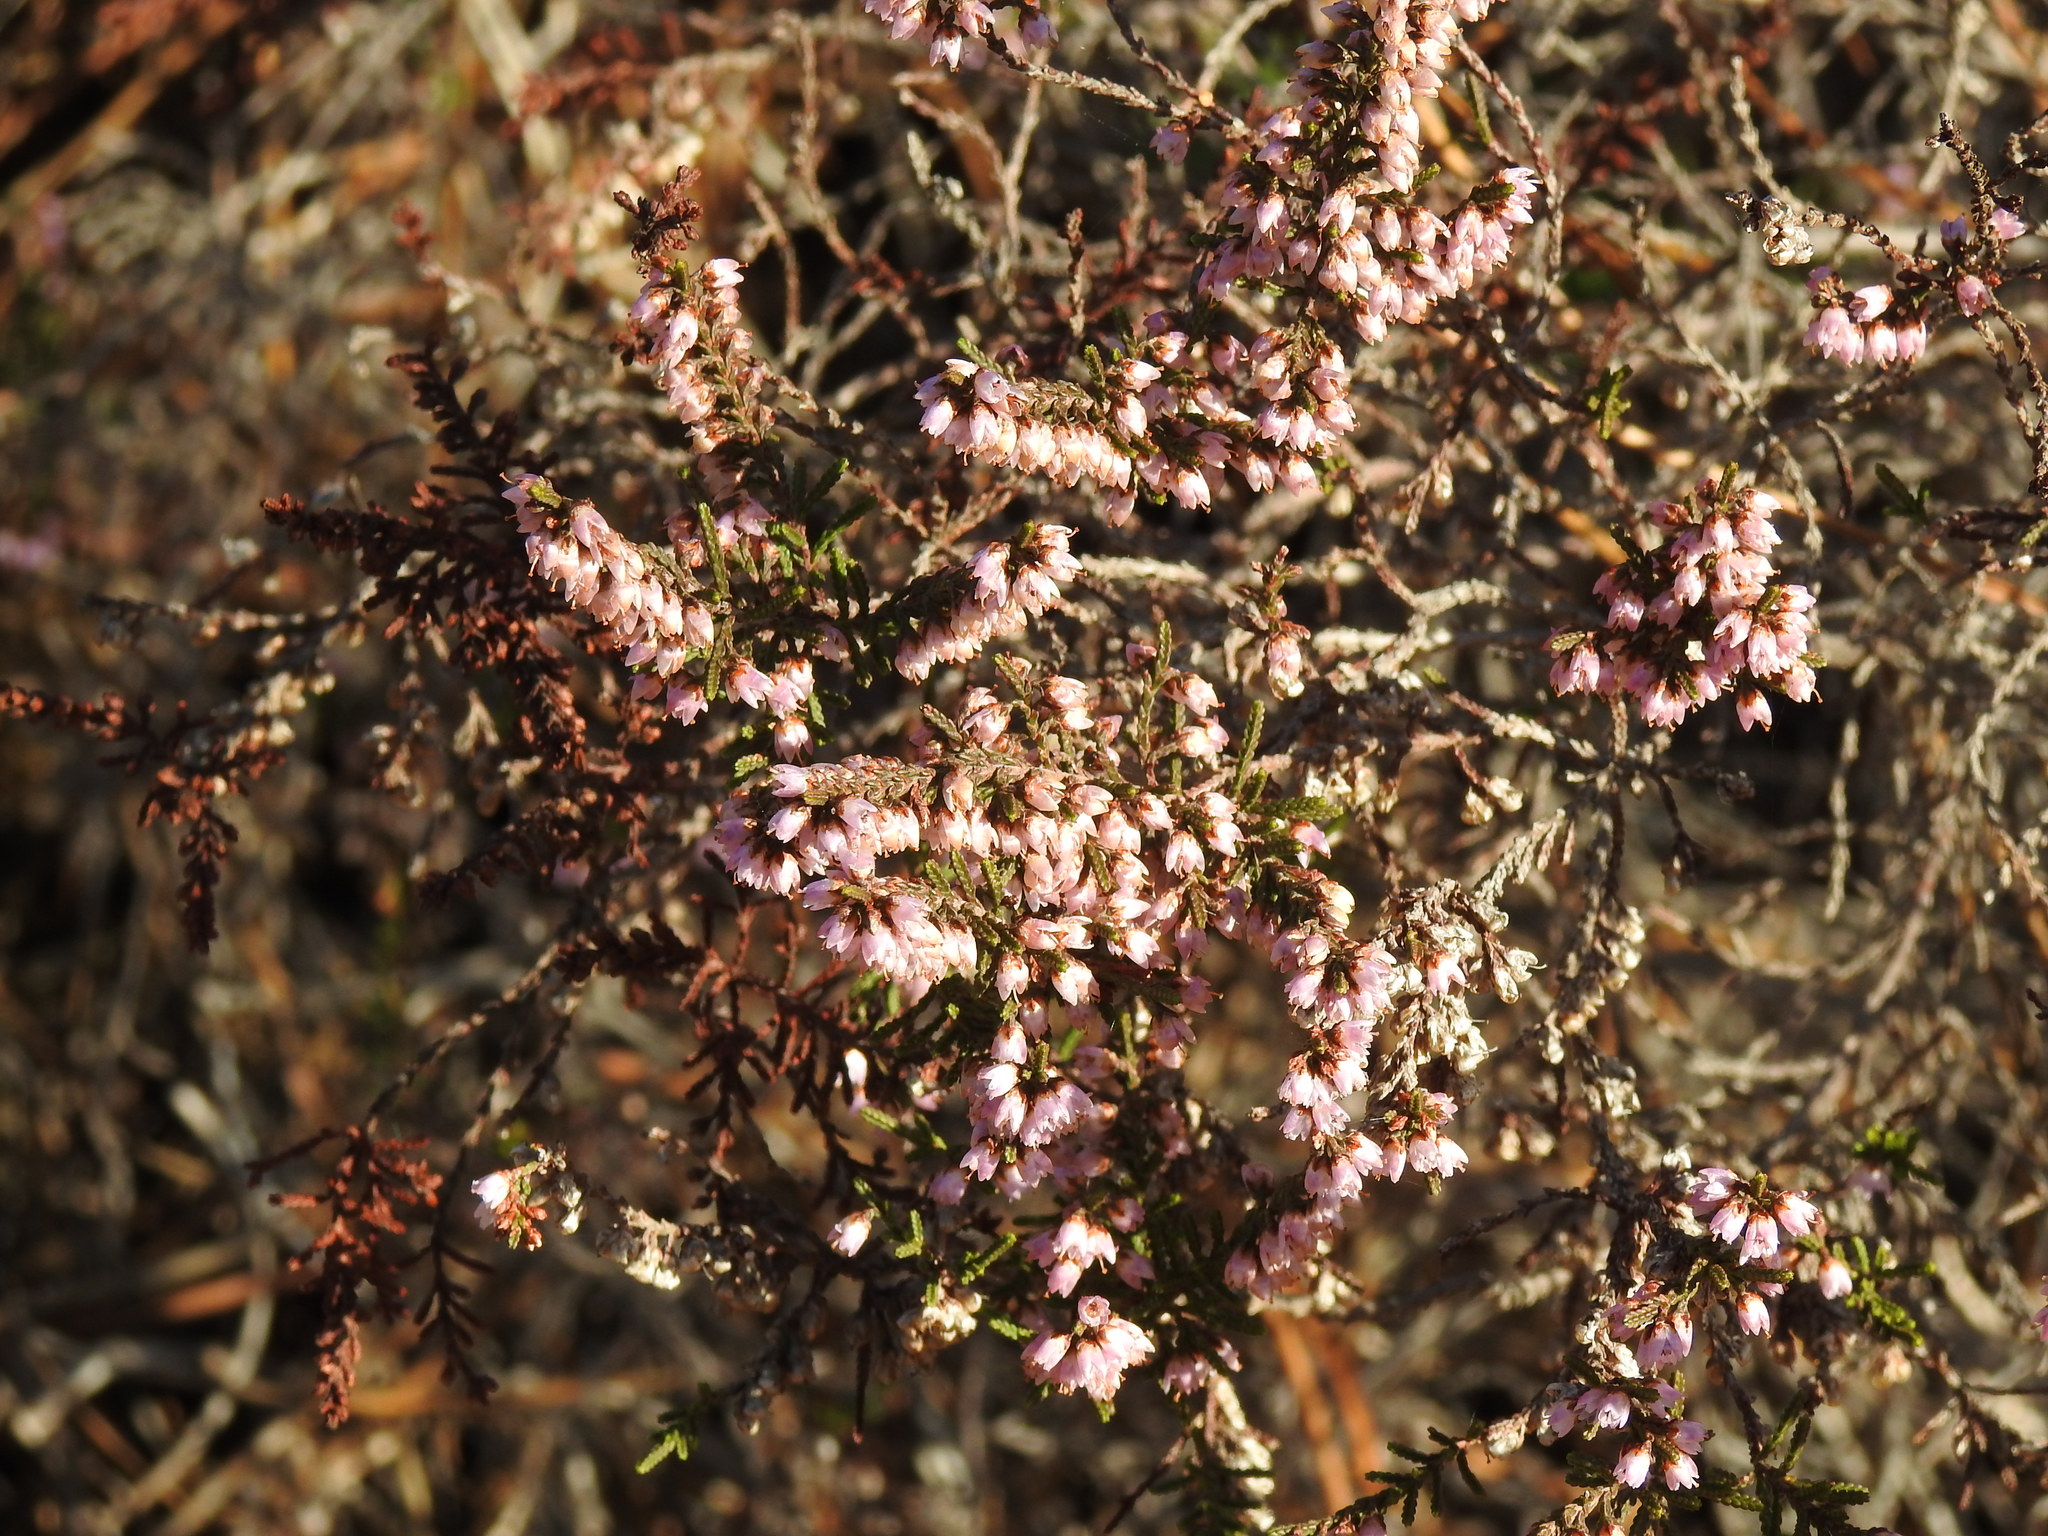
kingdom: Plantae
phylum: Tracheophyta
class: Magnoliopsida
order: Ericales
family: Ericaceae
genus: Calluna
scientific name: Calluna vulgaris
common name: Heather
